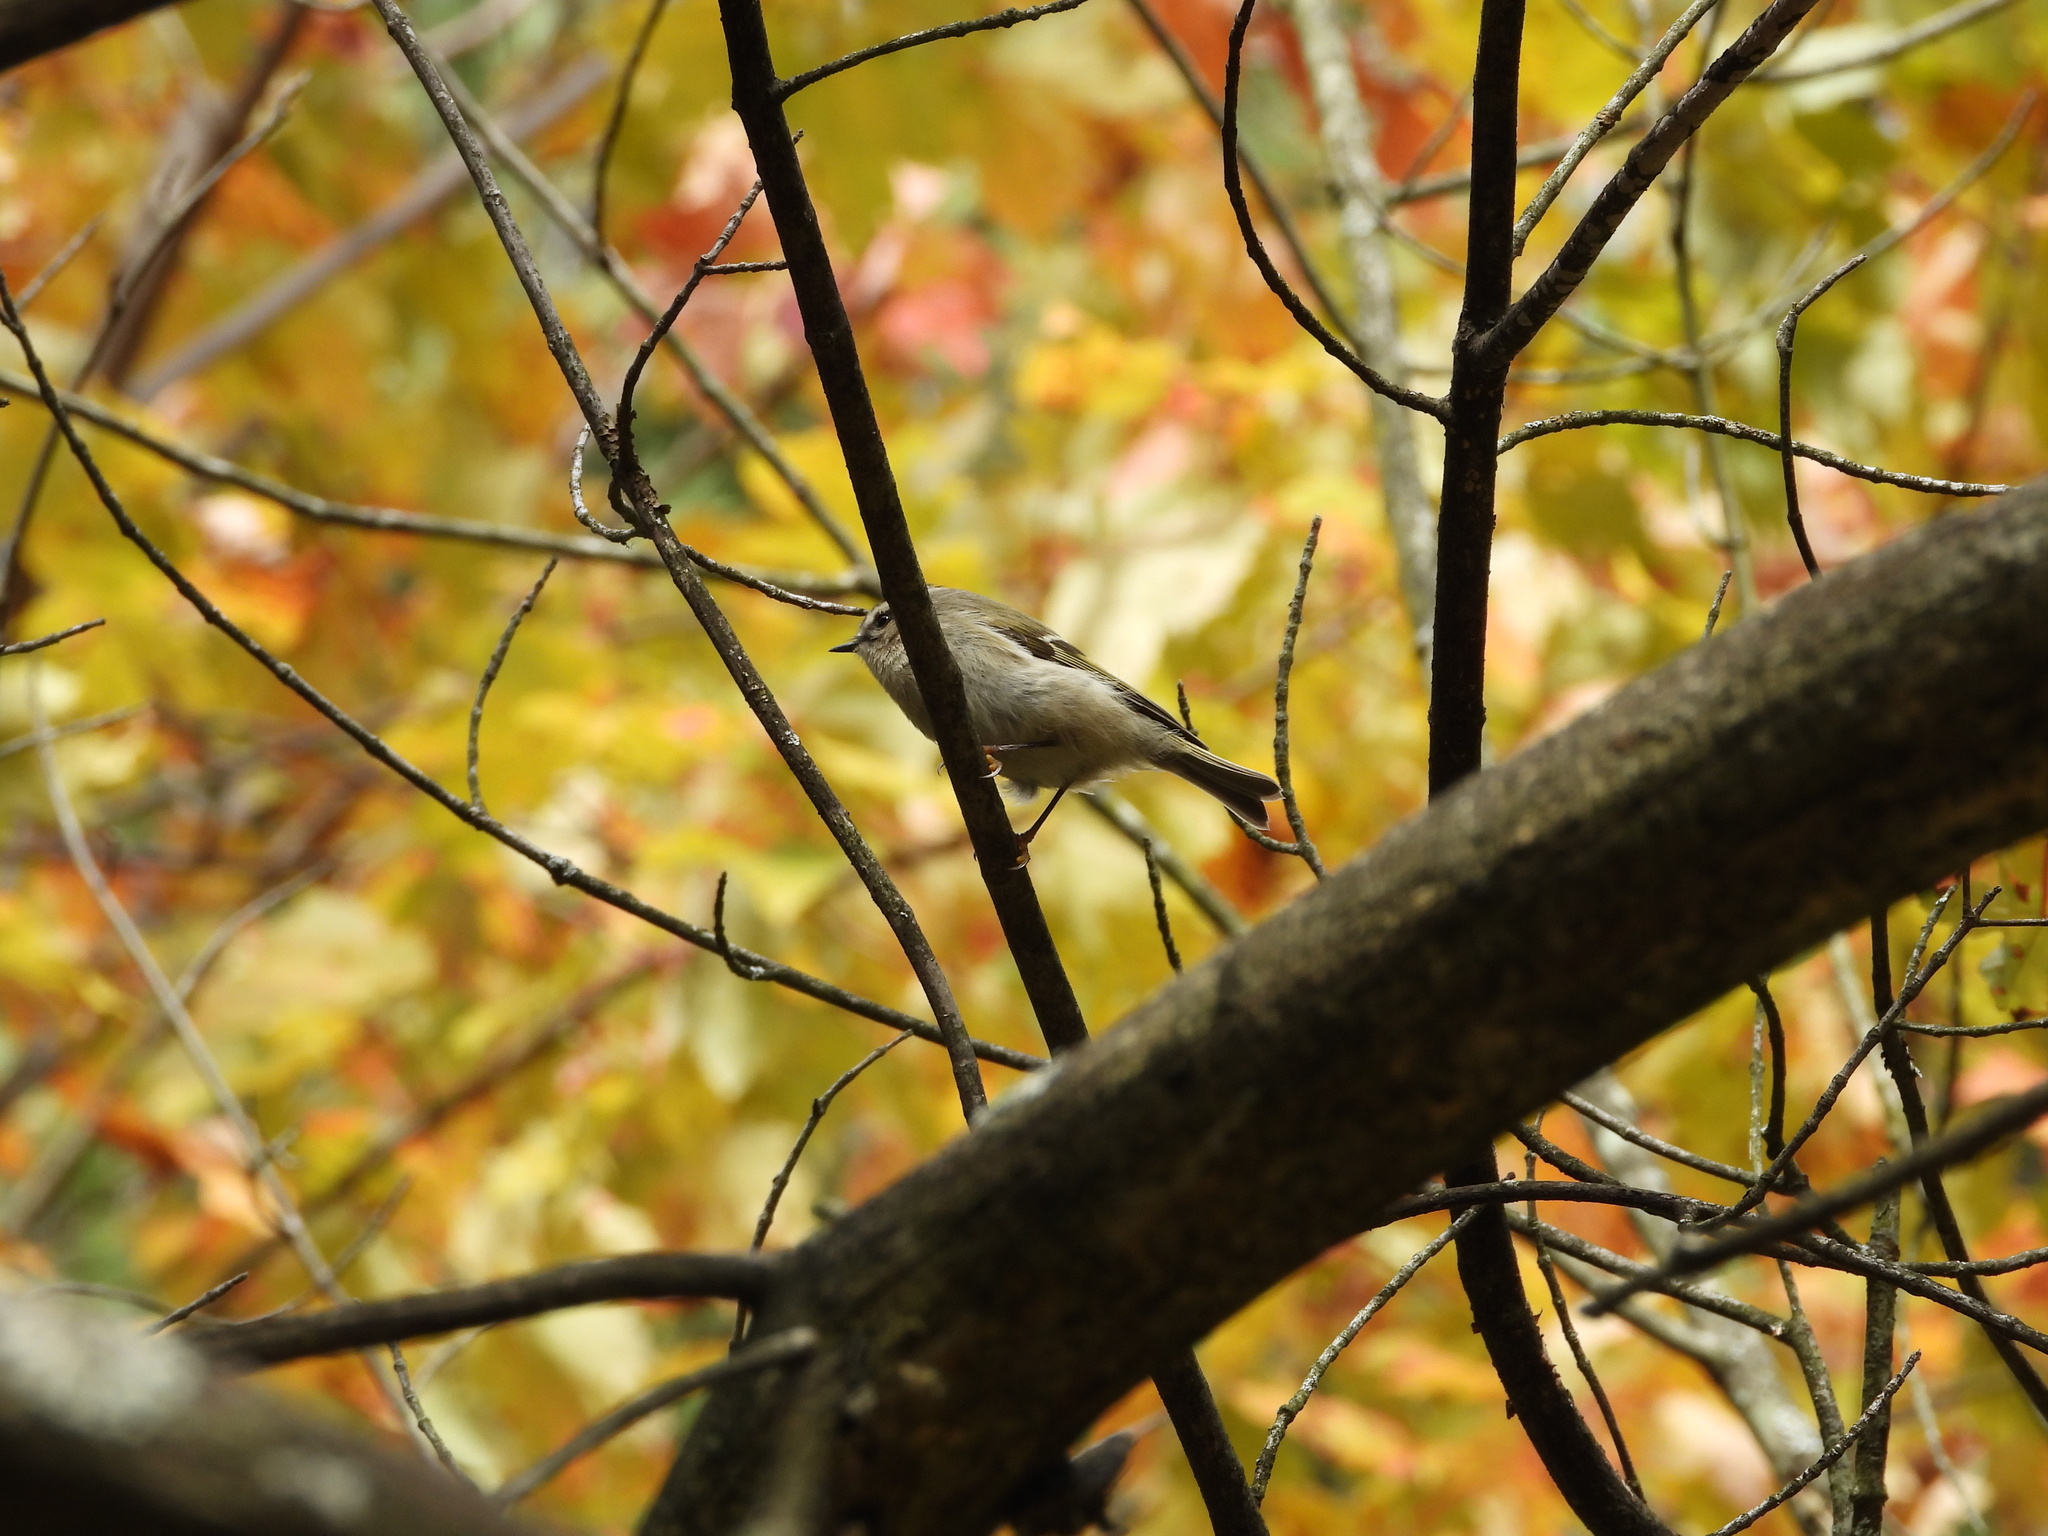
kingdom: Animalia
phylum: Chordata
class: Aves
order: Passeriformes
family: Regulidae
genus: Regulus
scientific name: Regulus satrapa
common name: Golden-crowned kinglet
